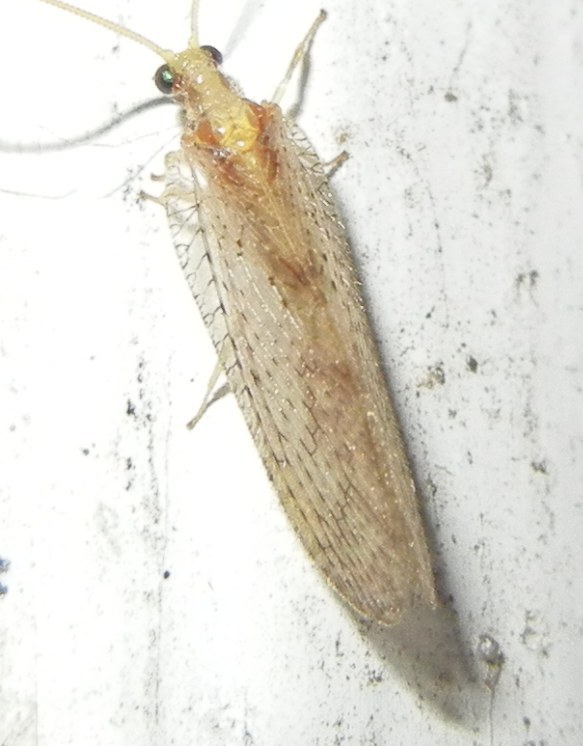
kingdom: Animalia
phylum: Arthropoda
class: Insecta
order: Neuroptera
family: Hemerobiidae
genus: Hemerobius
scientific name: Hemerobius micans
